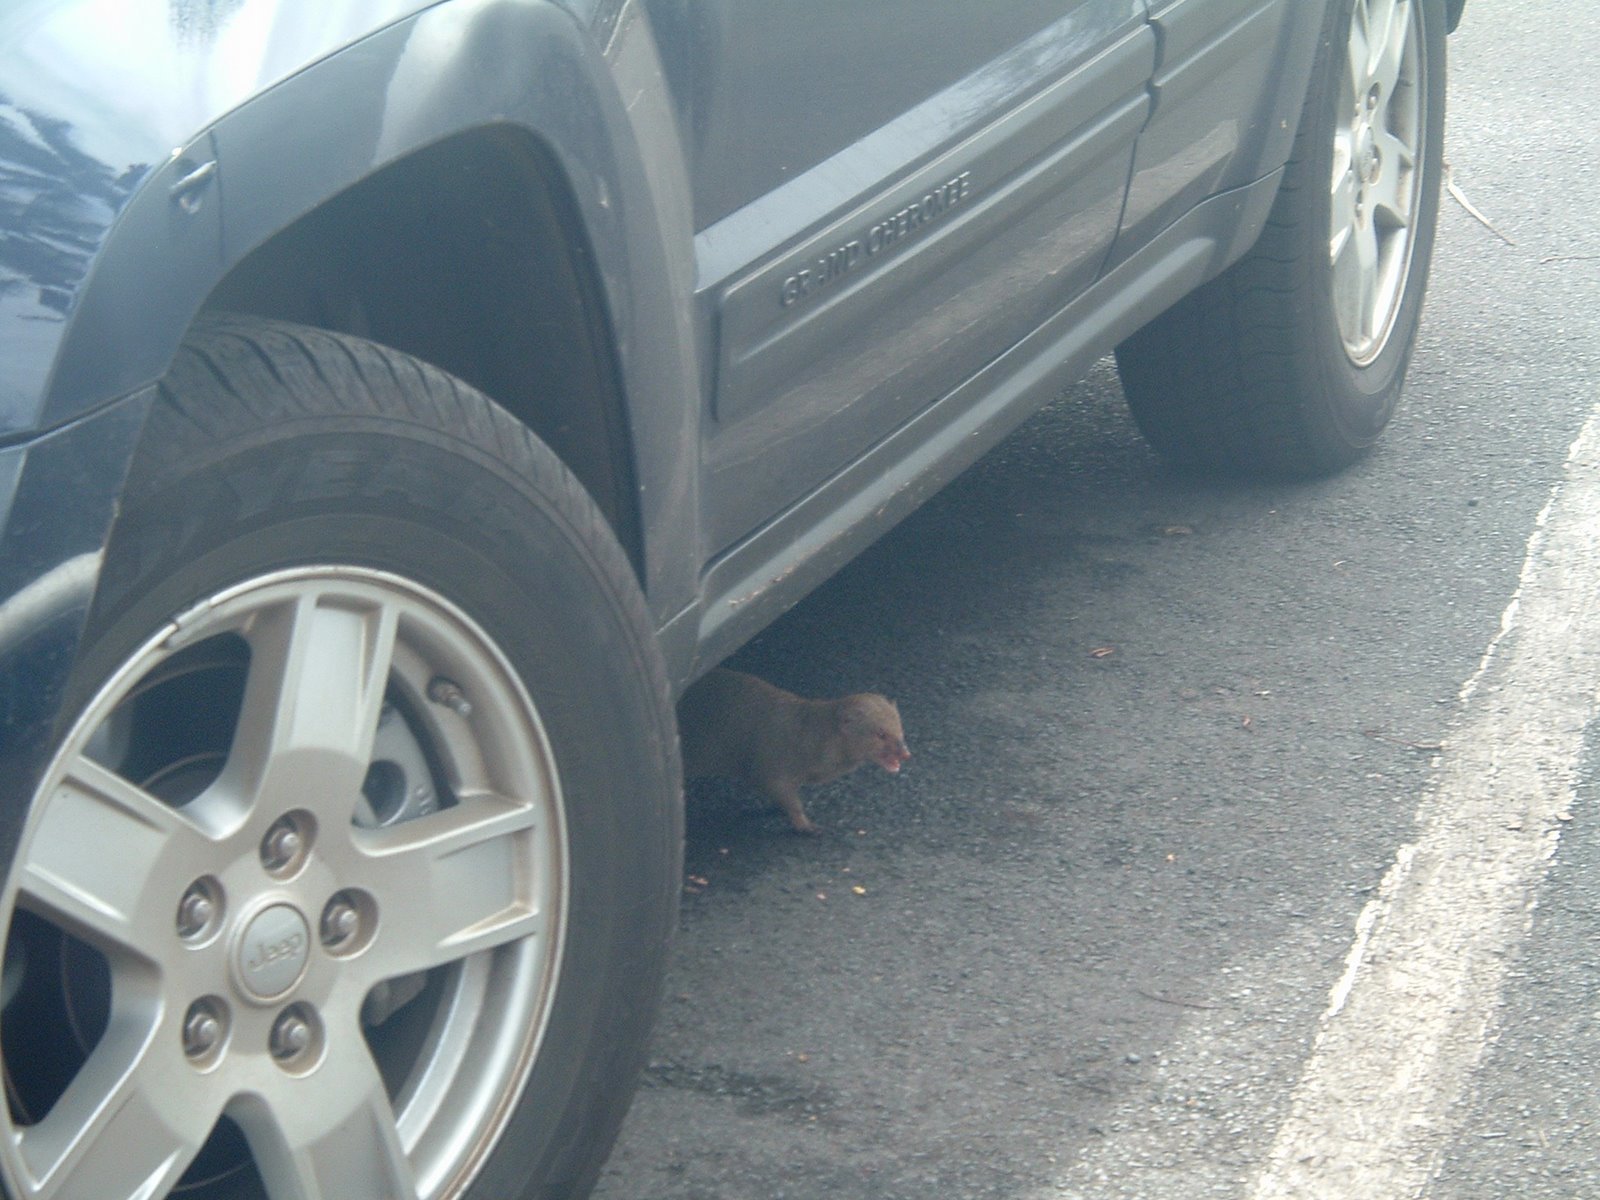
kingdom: Animalia
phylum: Chordata
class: Mammalia
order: Carnivora
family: Herpestidae
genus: Herpestes
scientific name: Herpestes javanicus
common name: Small asian mongoose
